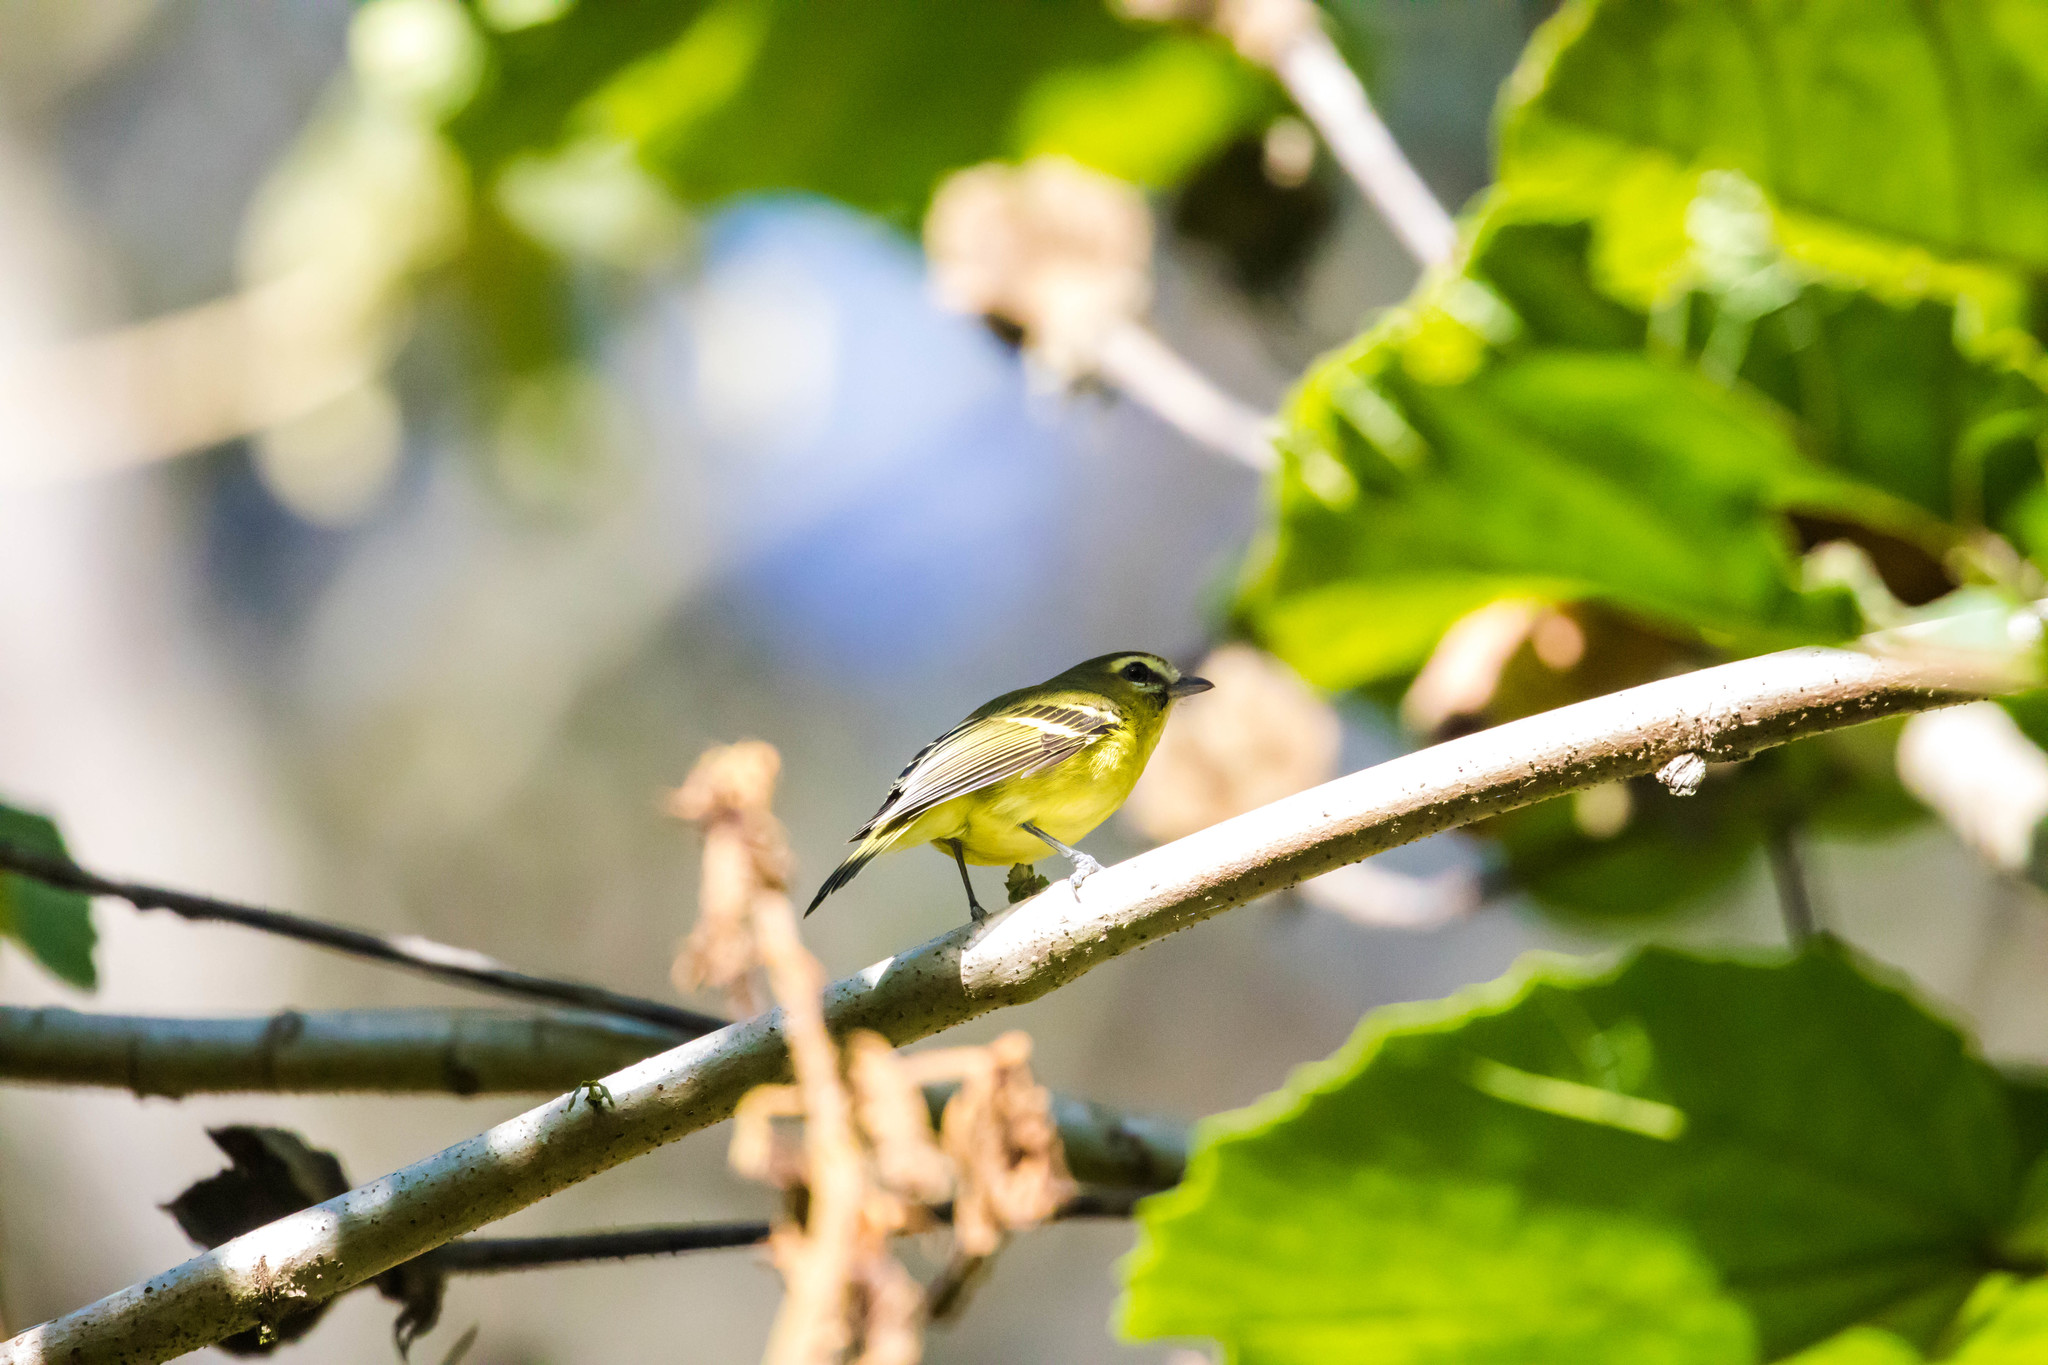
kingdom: Animalia
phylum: Chordata
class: Aves
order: Passeriformes
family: Vireonidae
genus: Vireo
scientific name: Vireo carmioli
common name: Yellow-winged vireo
